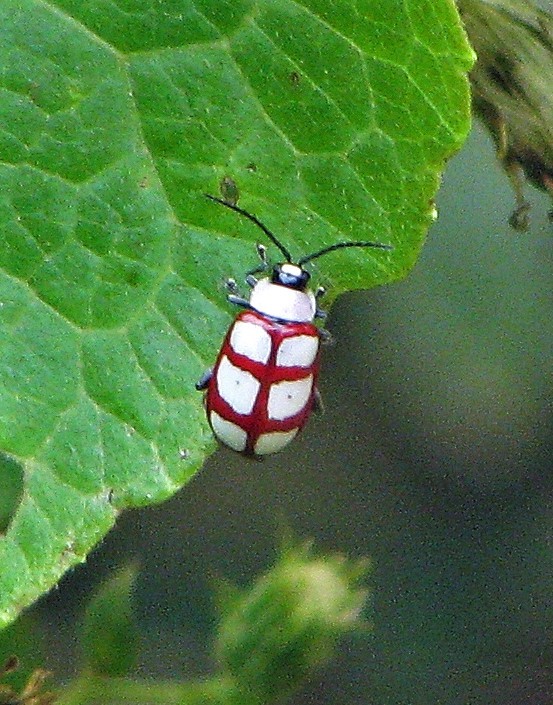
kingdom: Animalia
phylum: Arthropoda
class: Insecta
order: Coleoptera
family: Chrysomelidae
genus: Omophoita
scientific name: Omophoita personata
